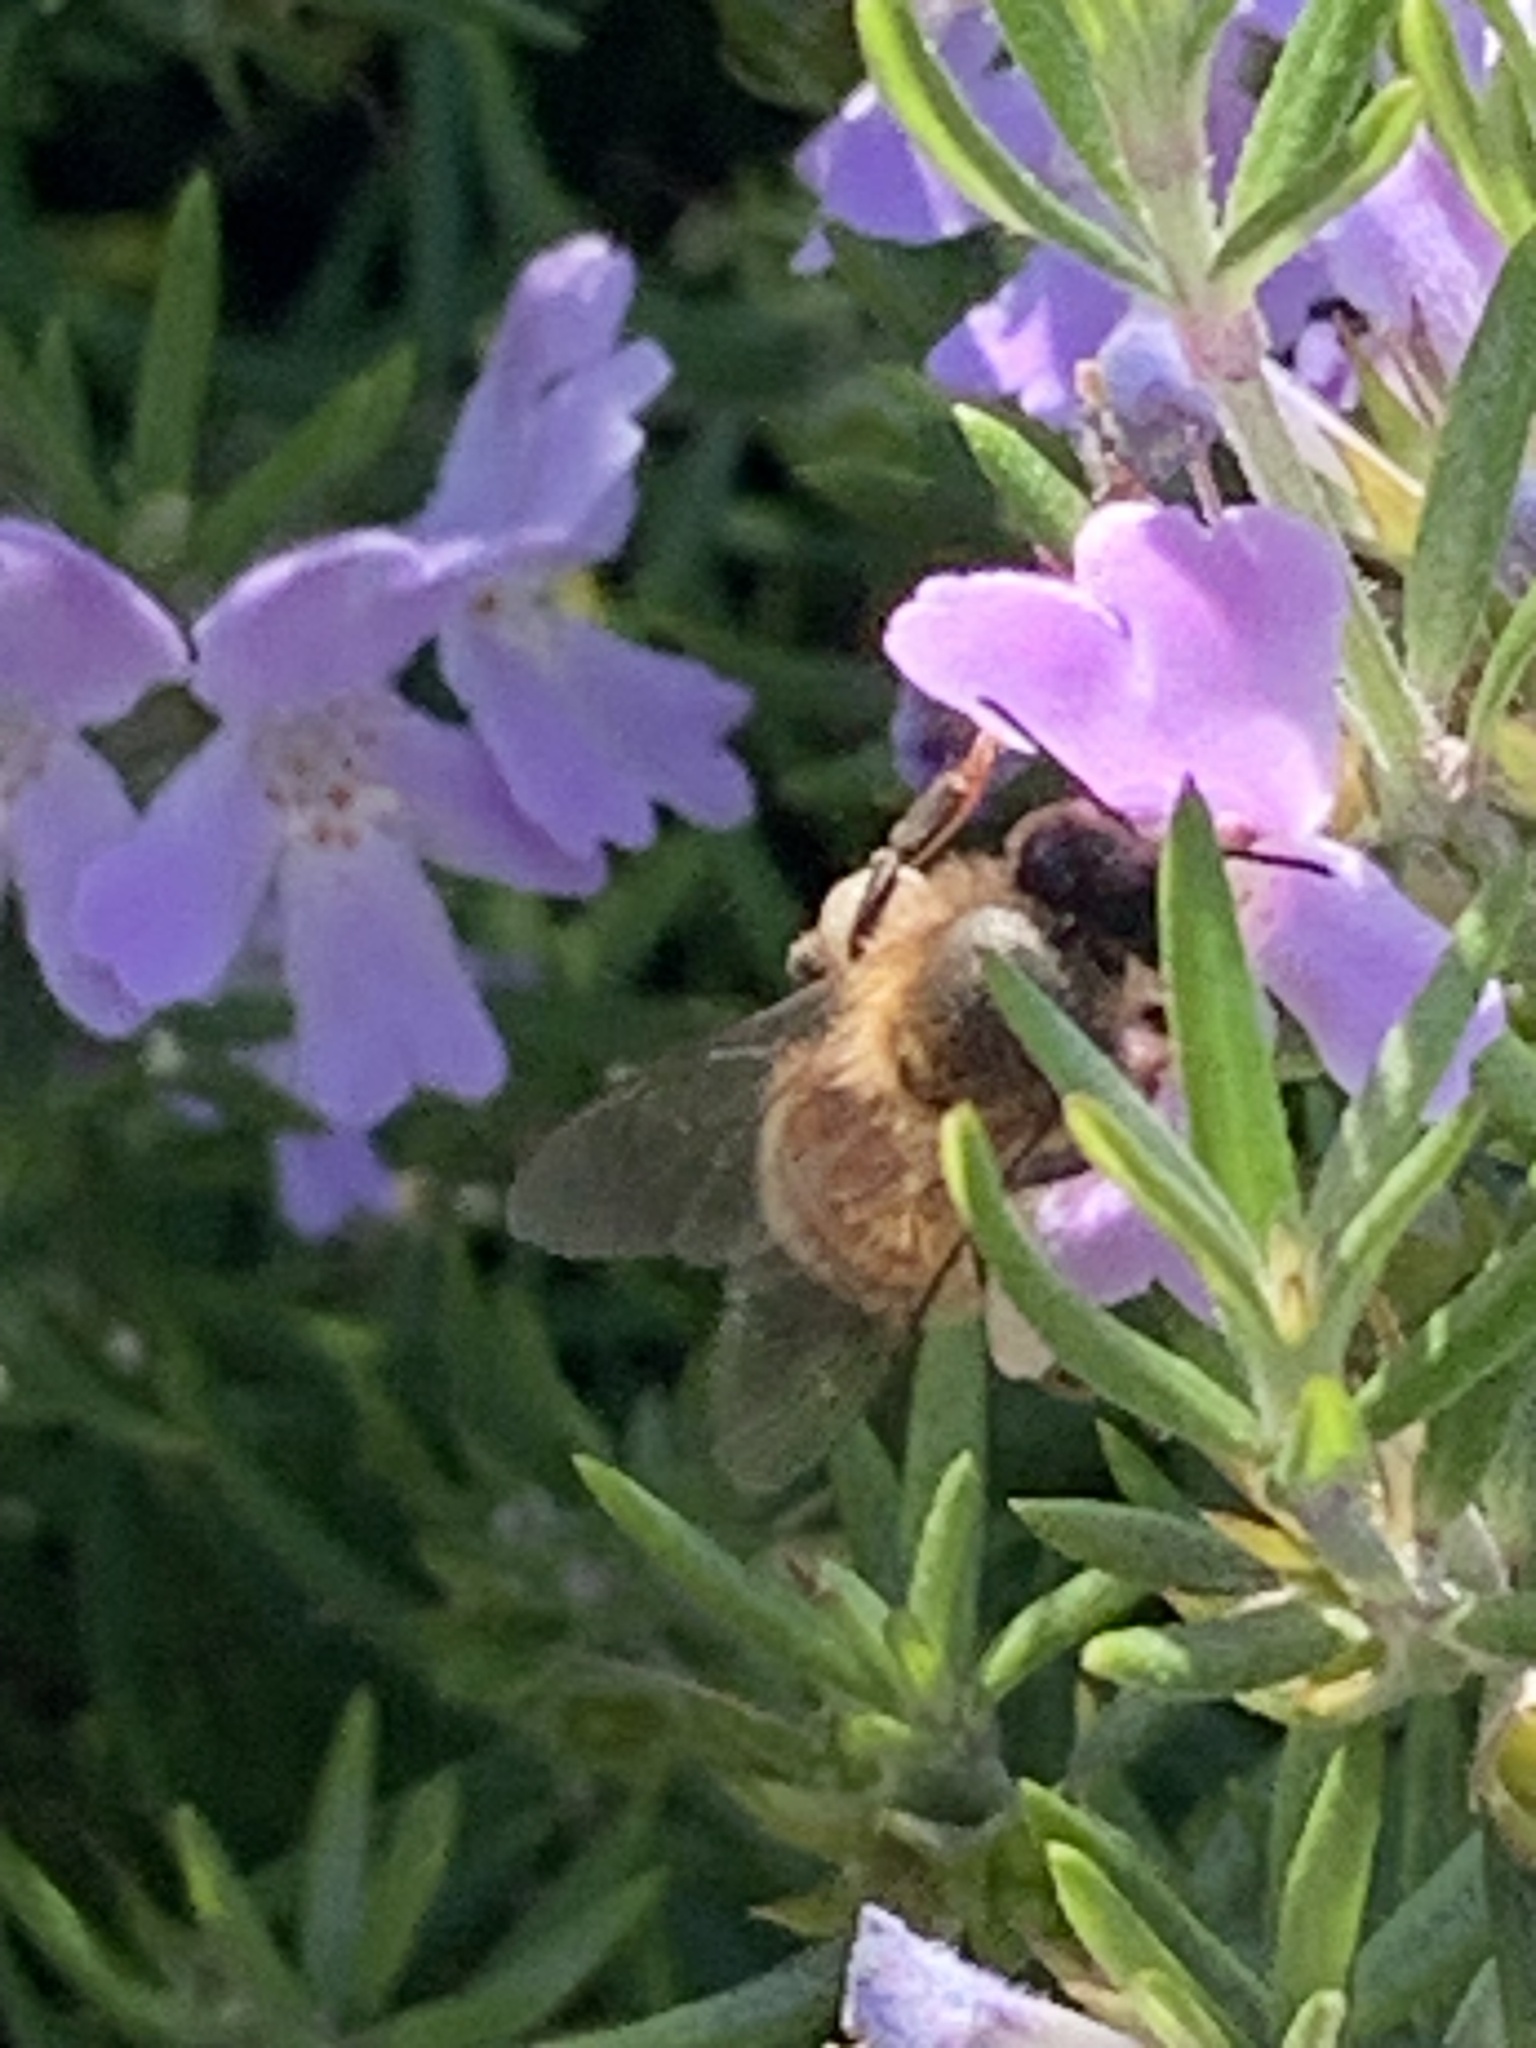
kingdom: Animalia
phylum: Arthropoda
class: Insecta
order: Hymenoptera
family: Apidae
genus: Apis
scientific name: Apis mellifera
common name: Honey bee
